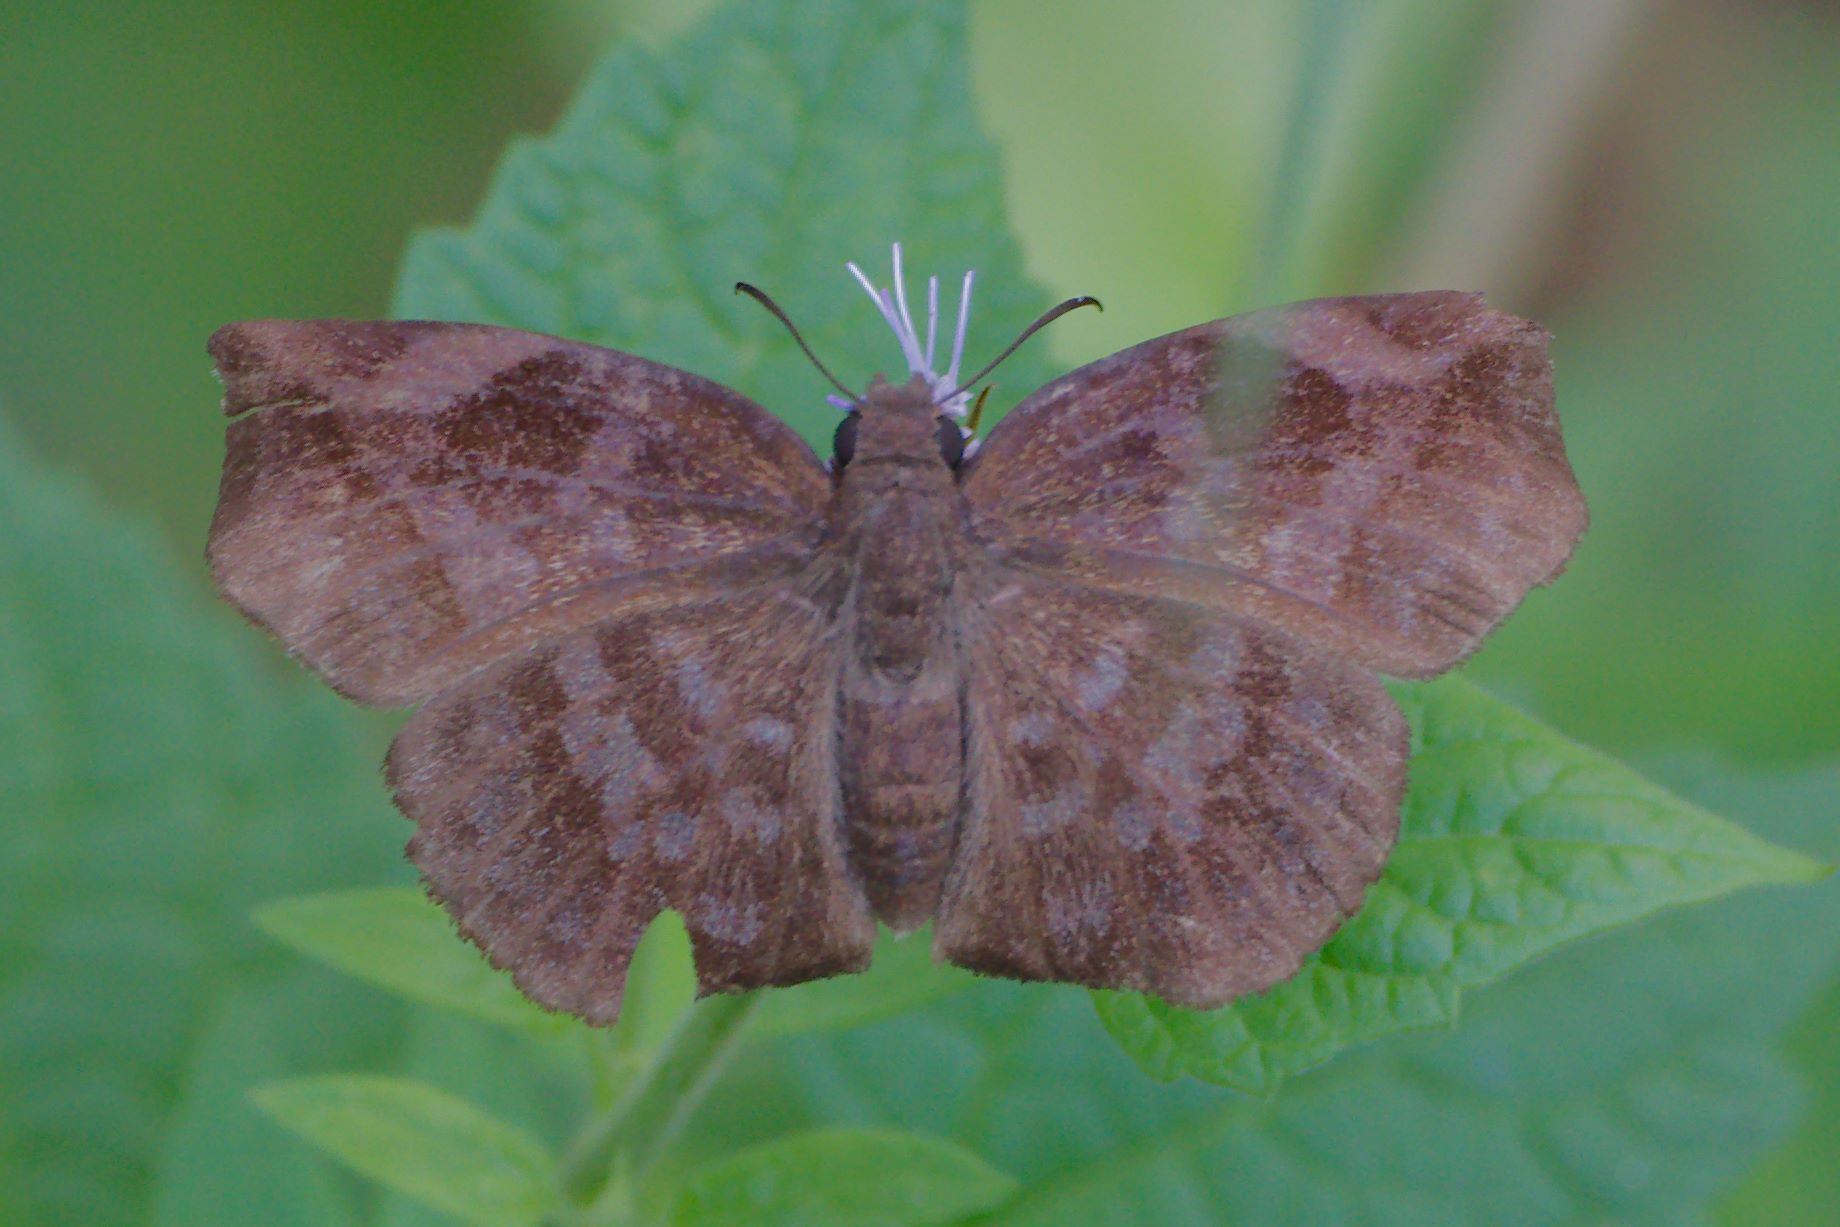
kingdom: Animalia
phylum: Arthropoda
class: Insecta
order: Lepidoptera
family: Hesperiidae
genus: Achlyodes
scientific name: Achlyodes thraso
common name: Sickle-winged skipper
